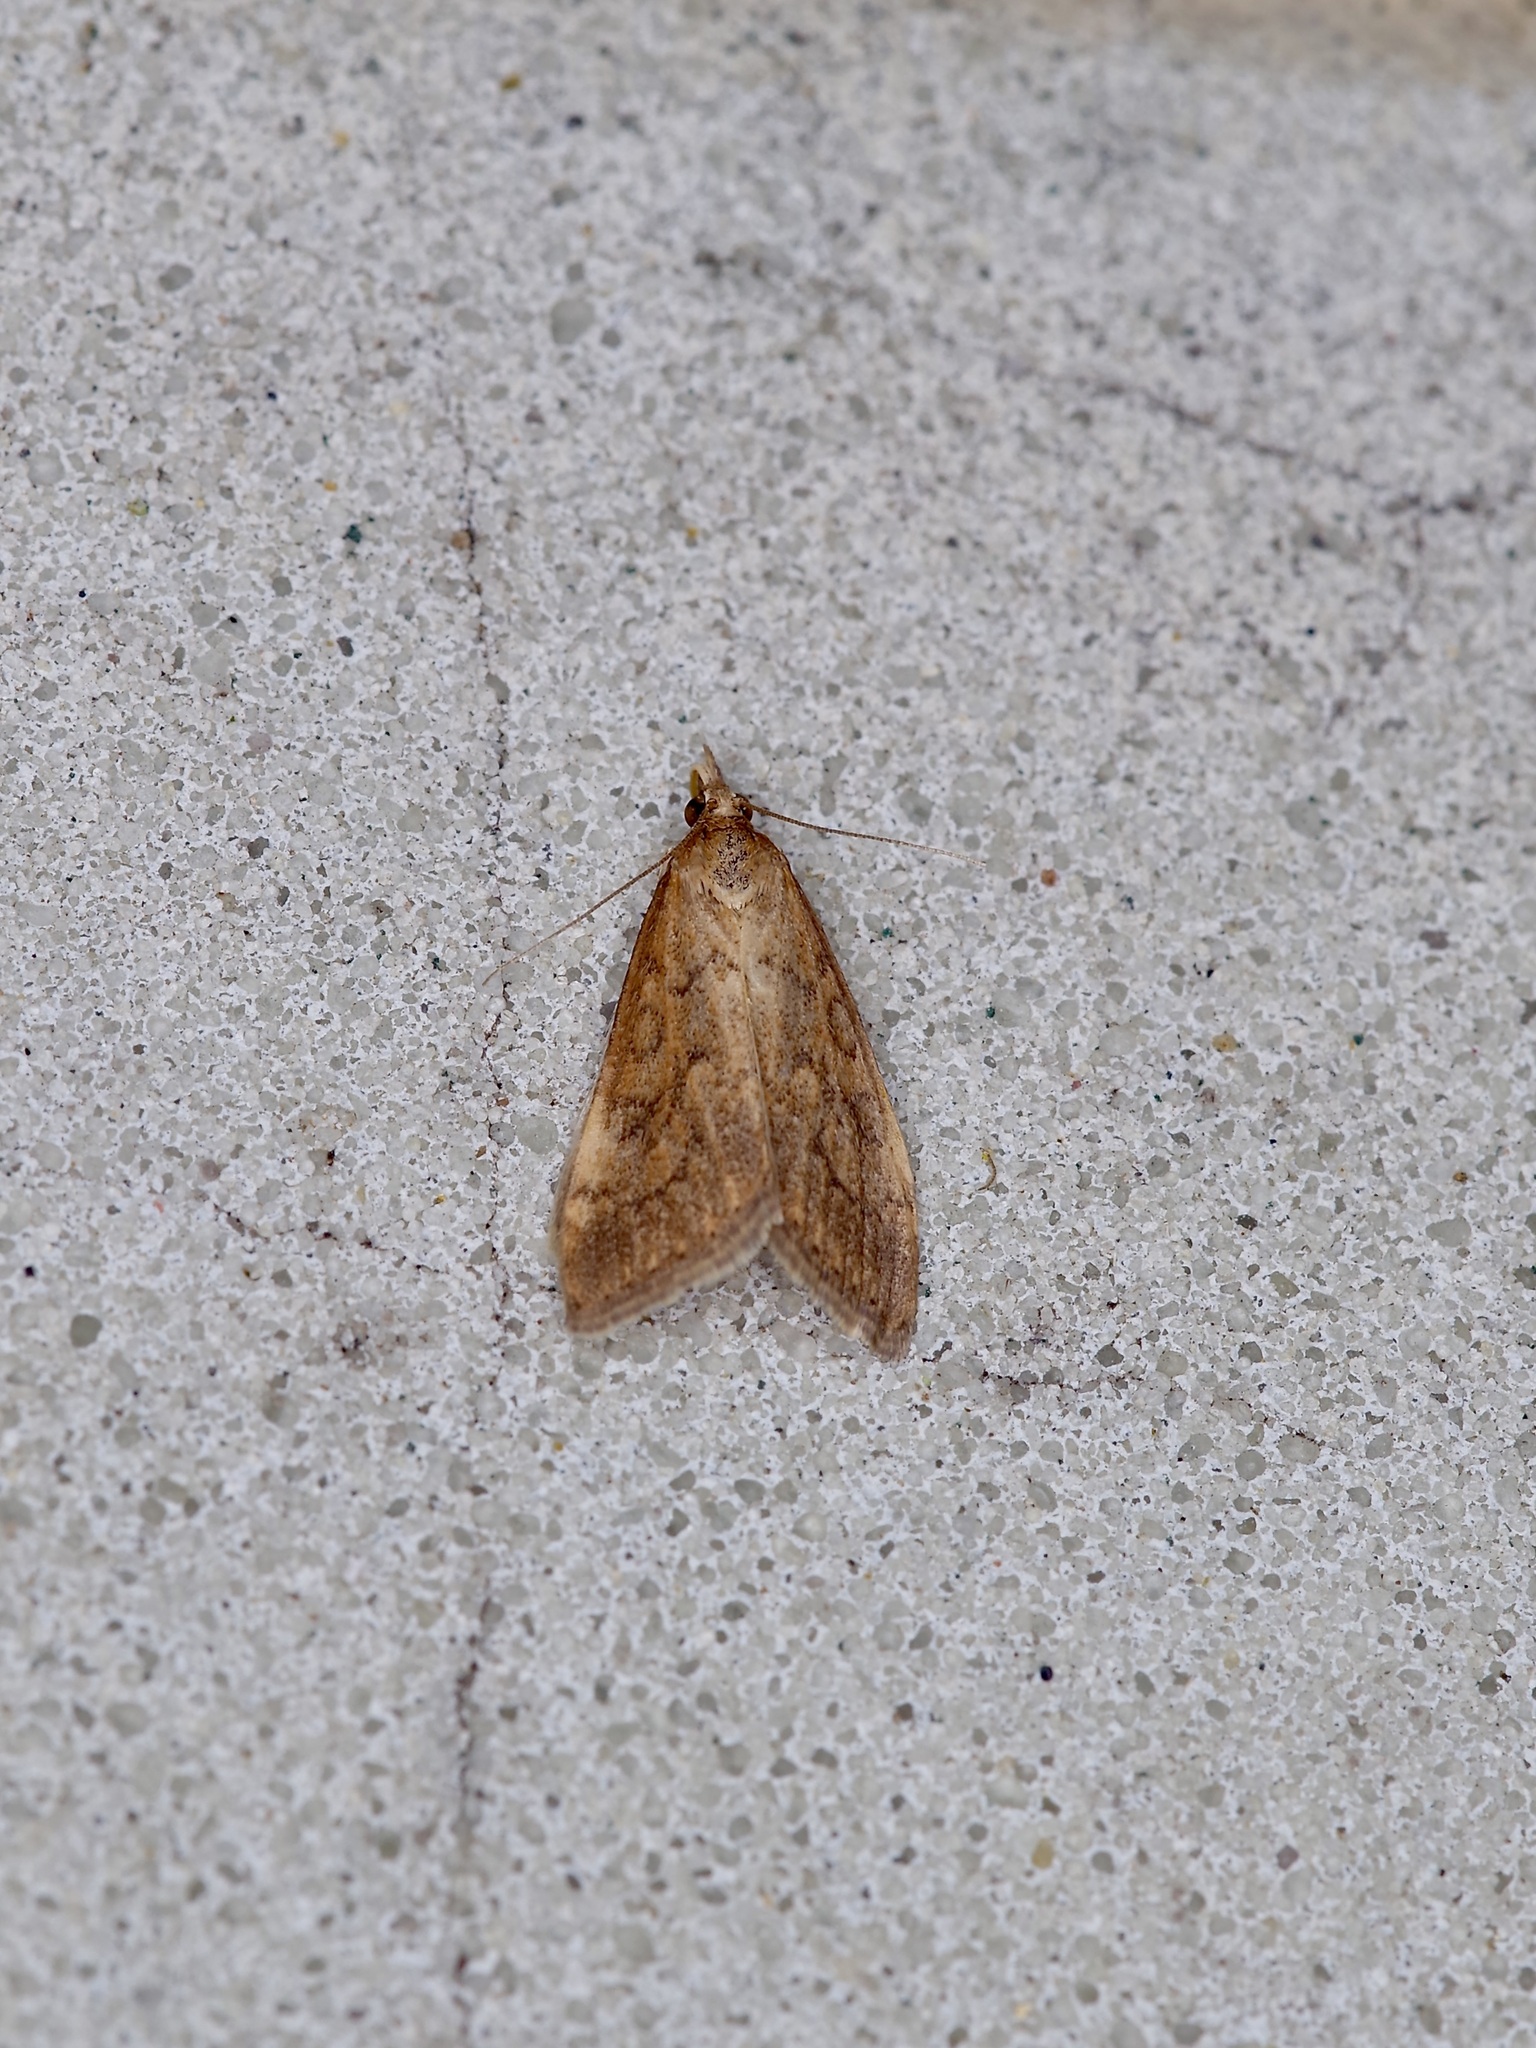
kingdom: Animalia
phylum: Arthropoda
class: Insecta
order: Lepidoptera
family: Crambidae
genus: Udea
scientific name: Udea rubigalis
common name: Celery leaftier moth
